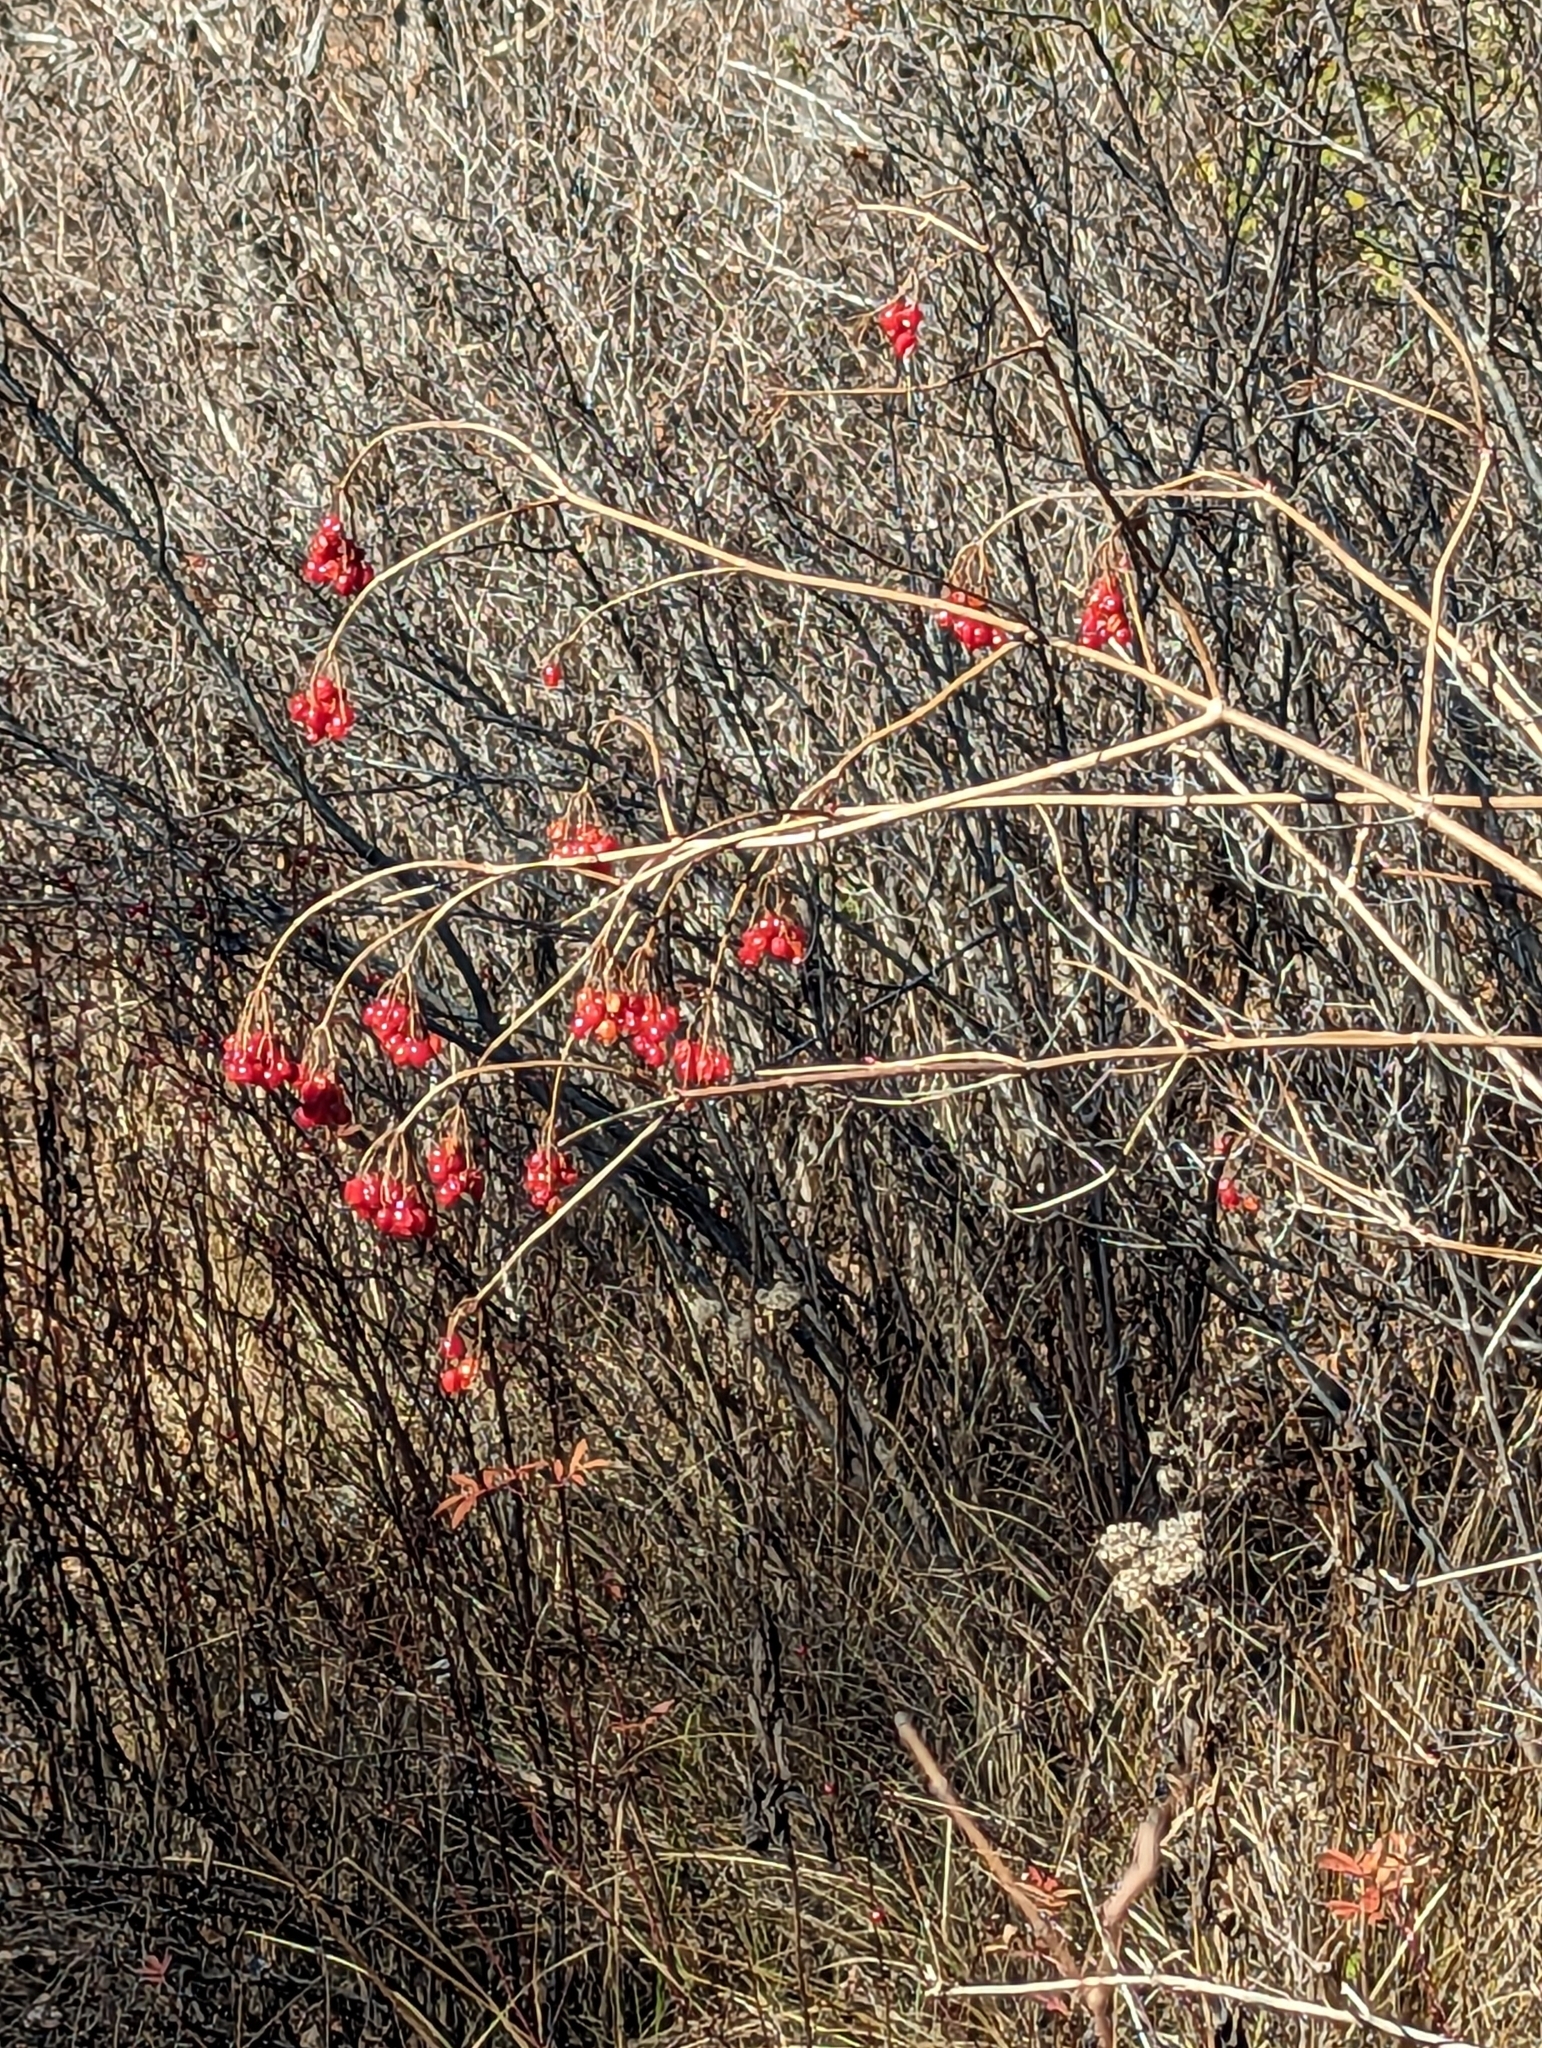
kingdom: Plantae
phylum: Tracheophyta
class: Magnoliopsida
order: Dipsacales
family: Viburnaceae
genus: Viburnum
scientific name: Viburnum opulus
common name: Guelder-rose
